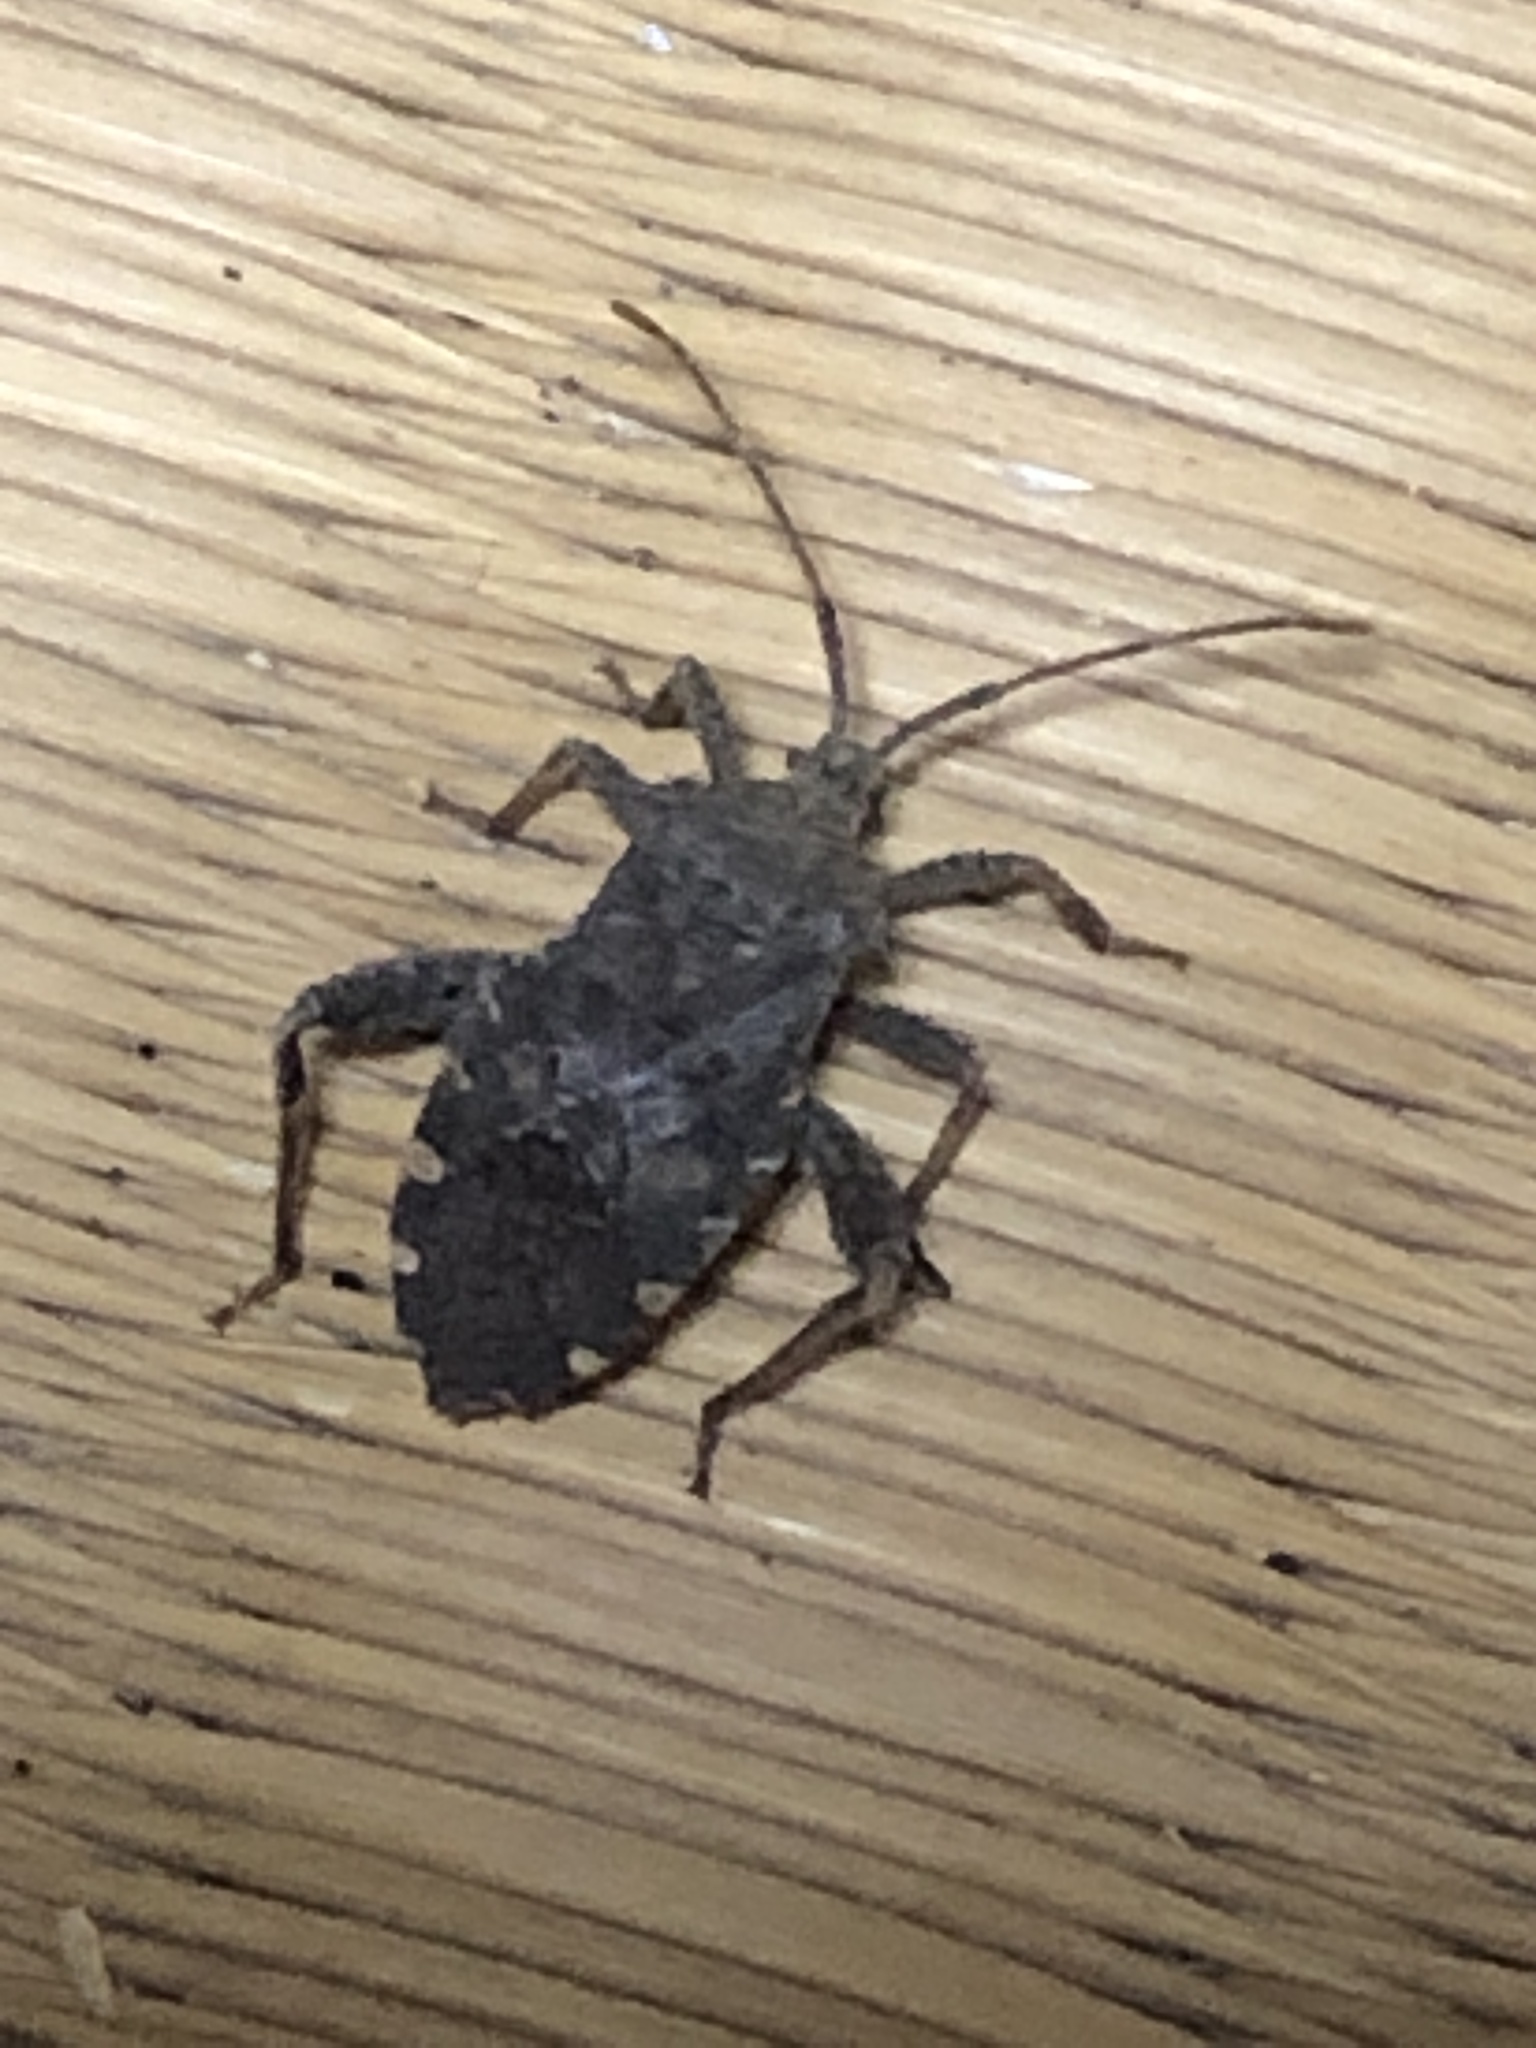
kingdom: Animalia
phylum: Arthropoda
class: Insecta
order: Hemiptera
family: Coreidae
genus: Acanthocoris
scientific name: Acanthocoris sordidus
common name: Winter cherry bug
